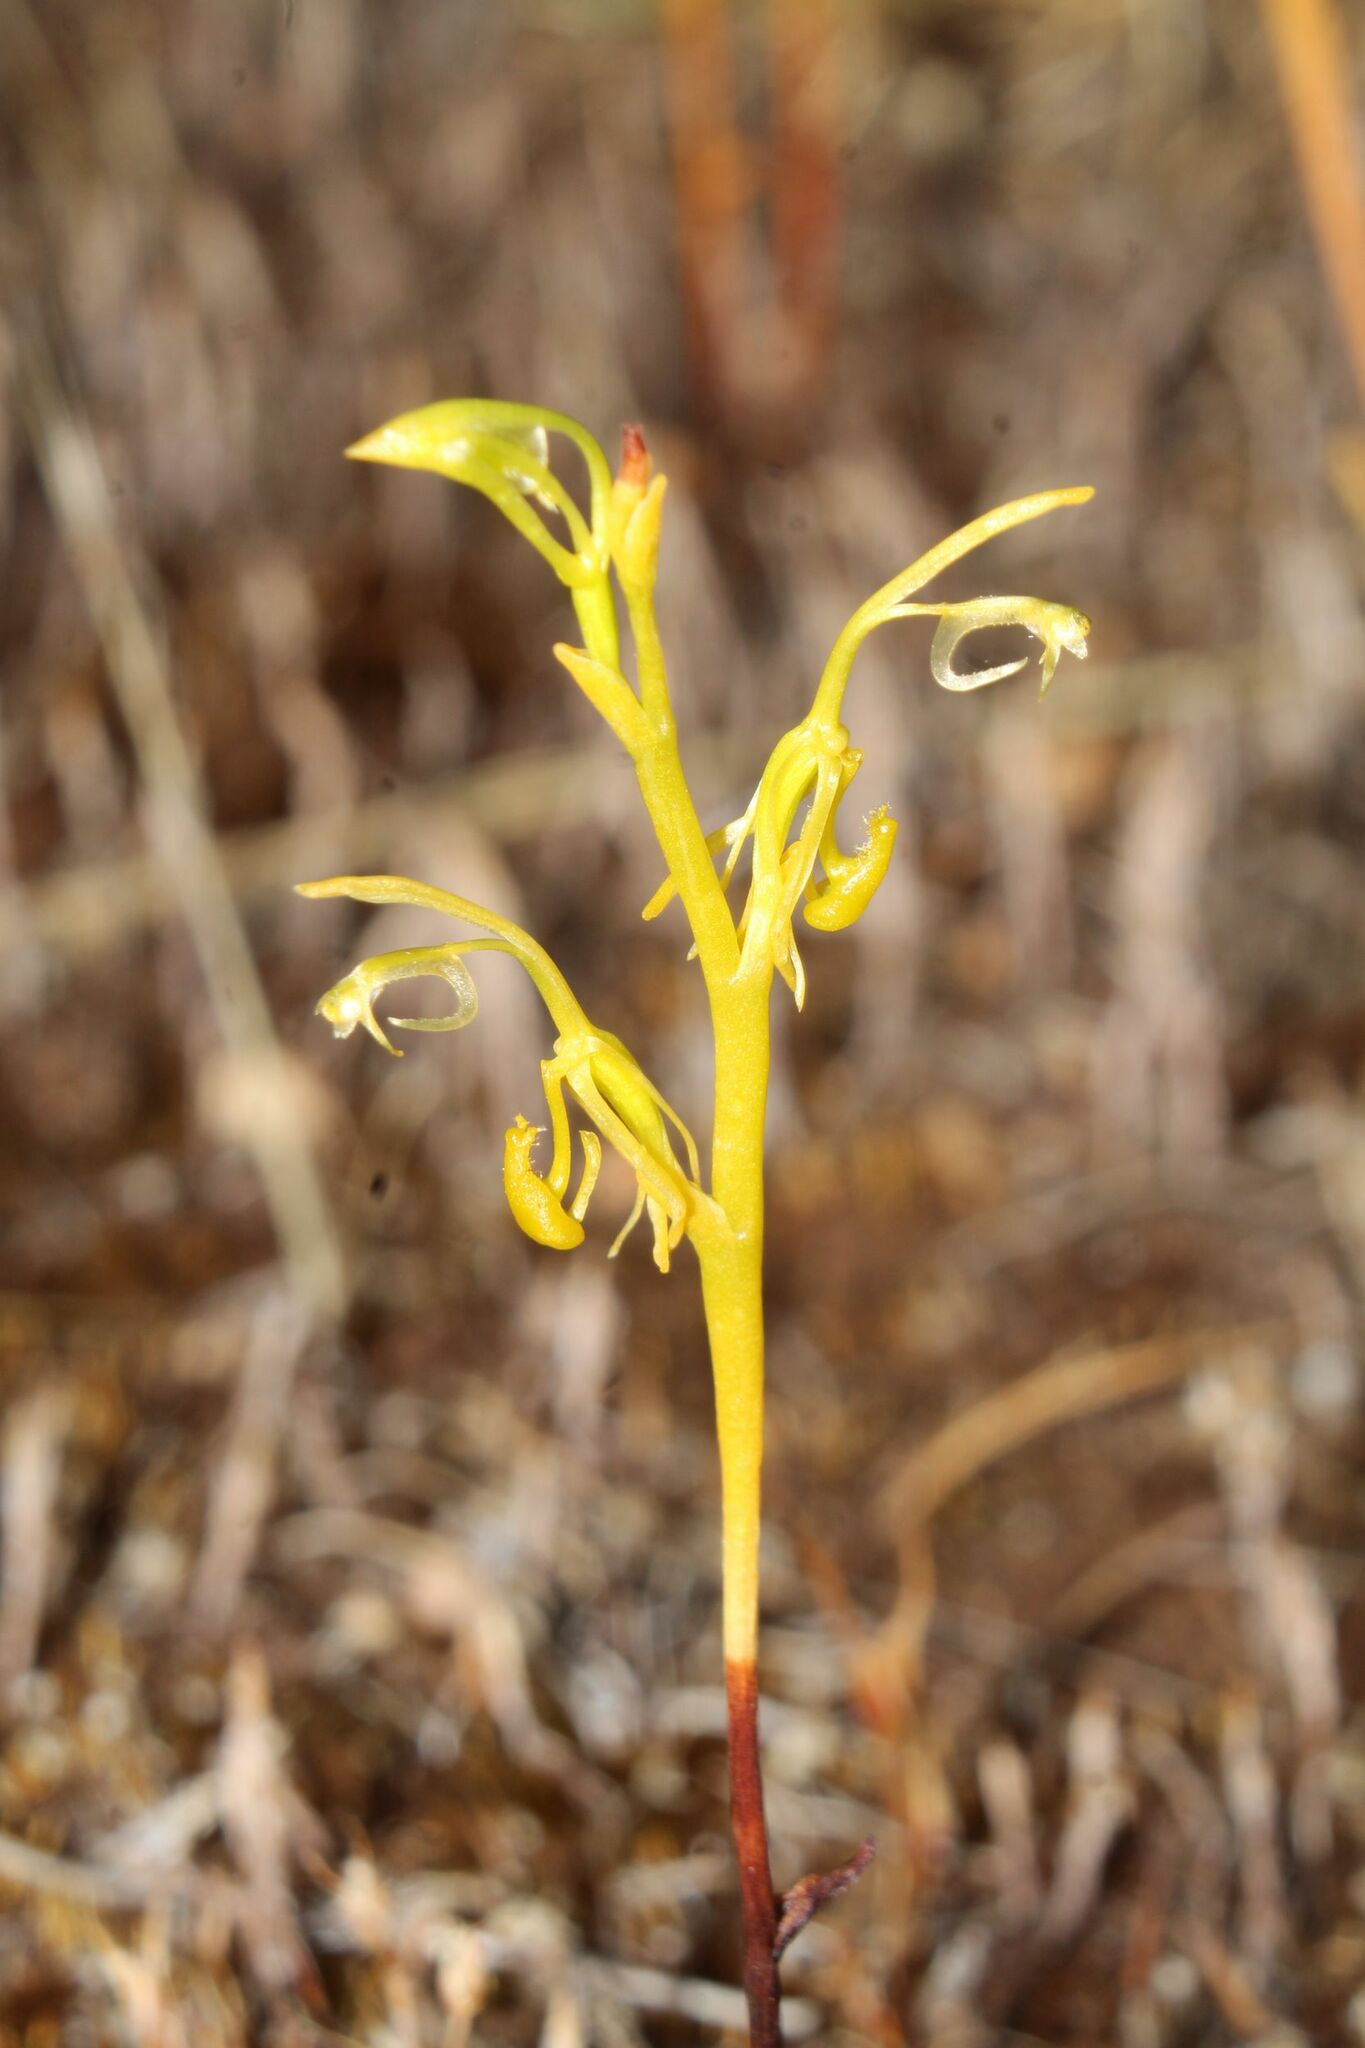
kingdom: Plantae
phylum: Tracheophyta
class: Liliopsida
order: Asparagales
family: Orchidaceae
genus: Spiculaea
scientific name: Spiculaea ciliata
